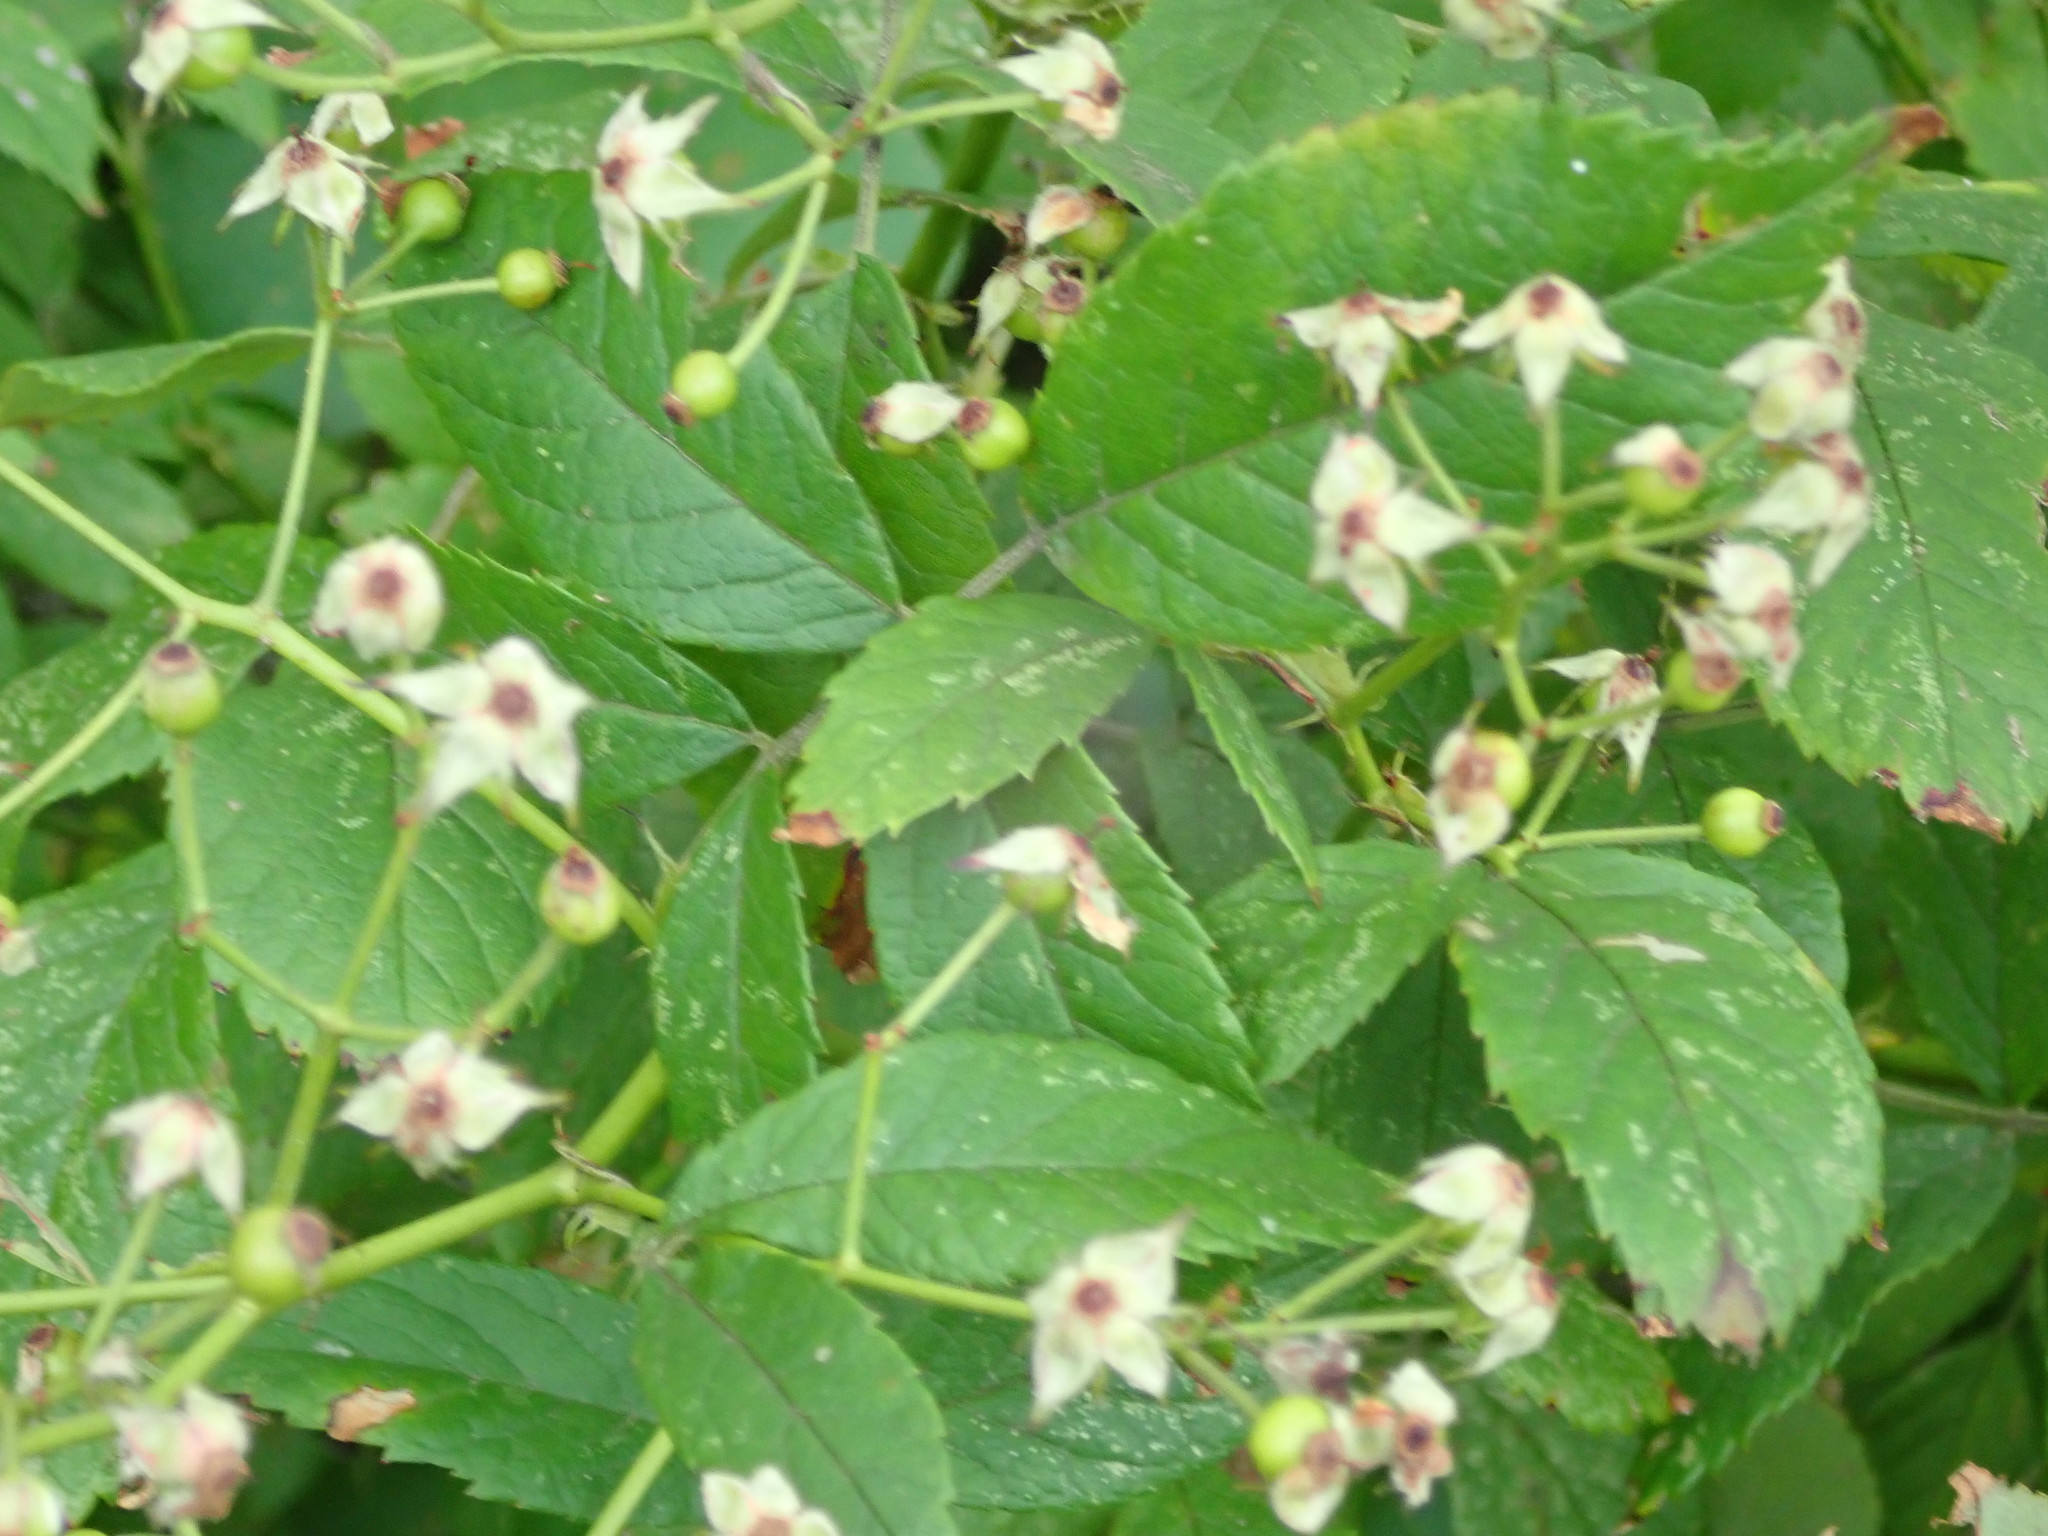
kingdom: Plantae
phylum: Tracheophyta
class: Magnoliopsida
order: Rosales
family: Rosaceae
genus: Rosa
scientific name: Rosa multiflora
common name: Multiflora rose
